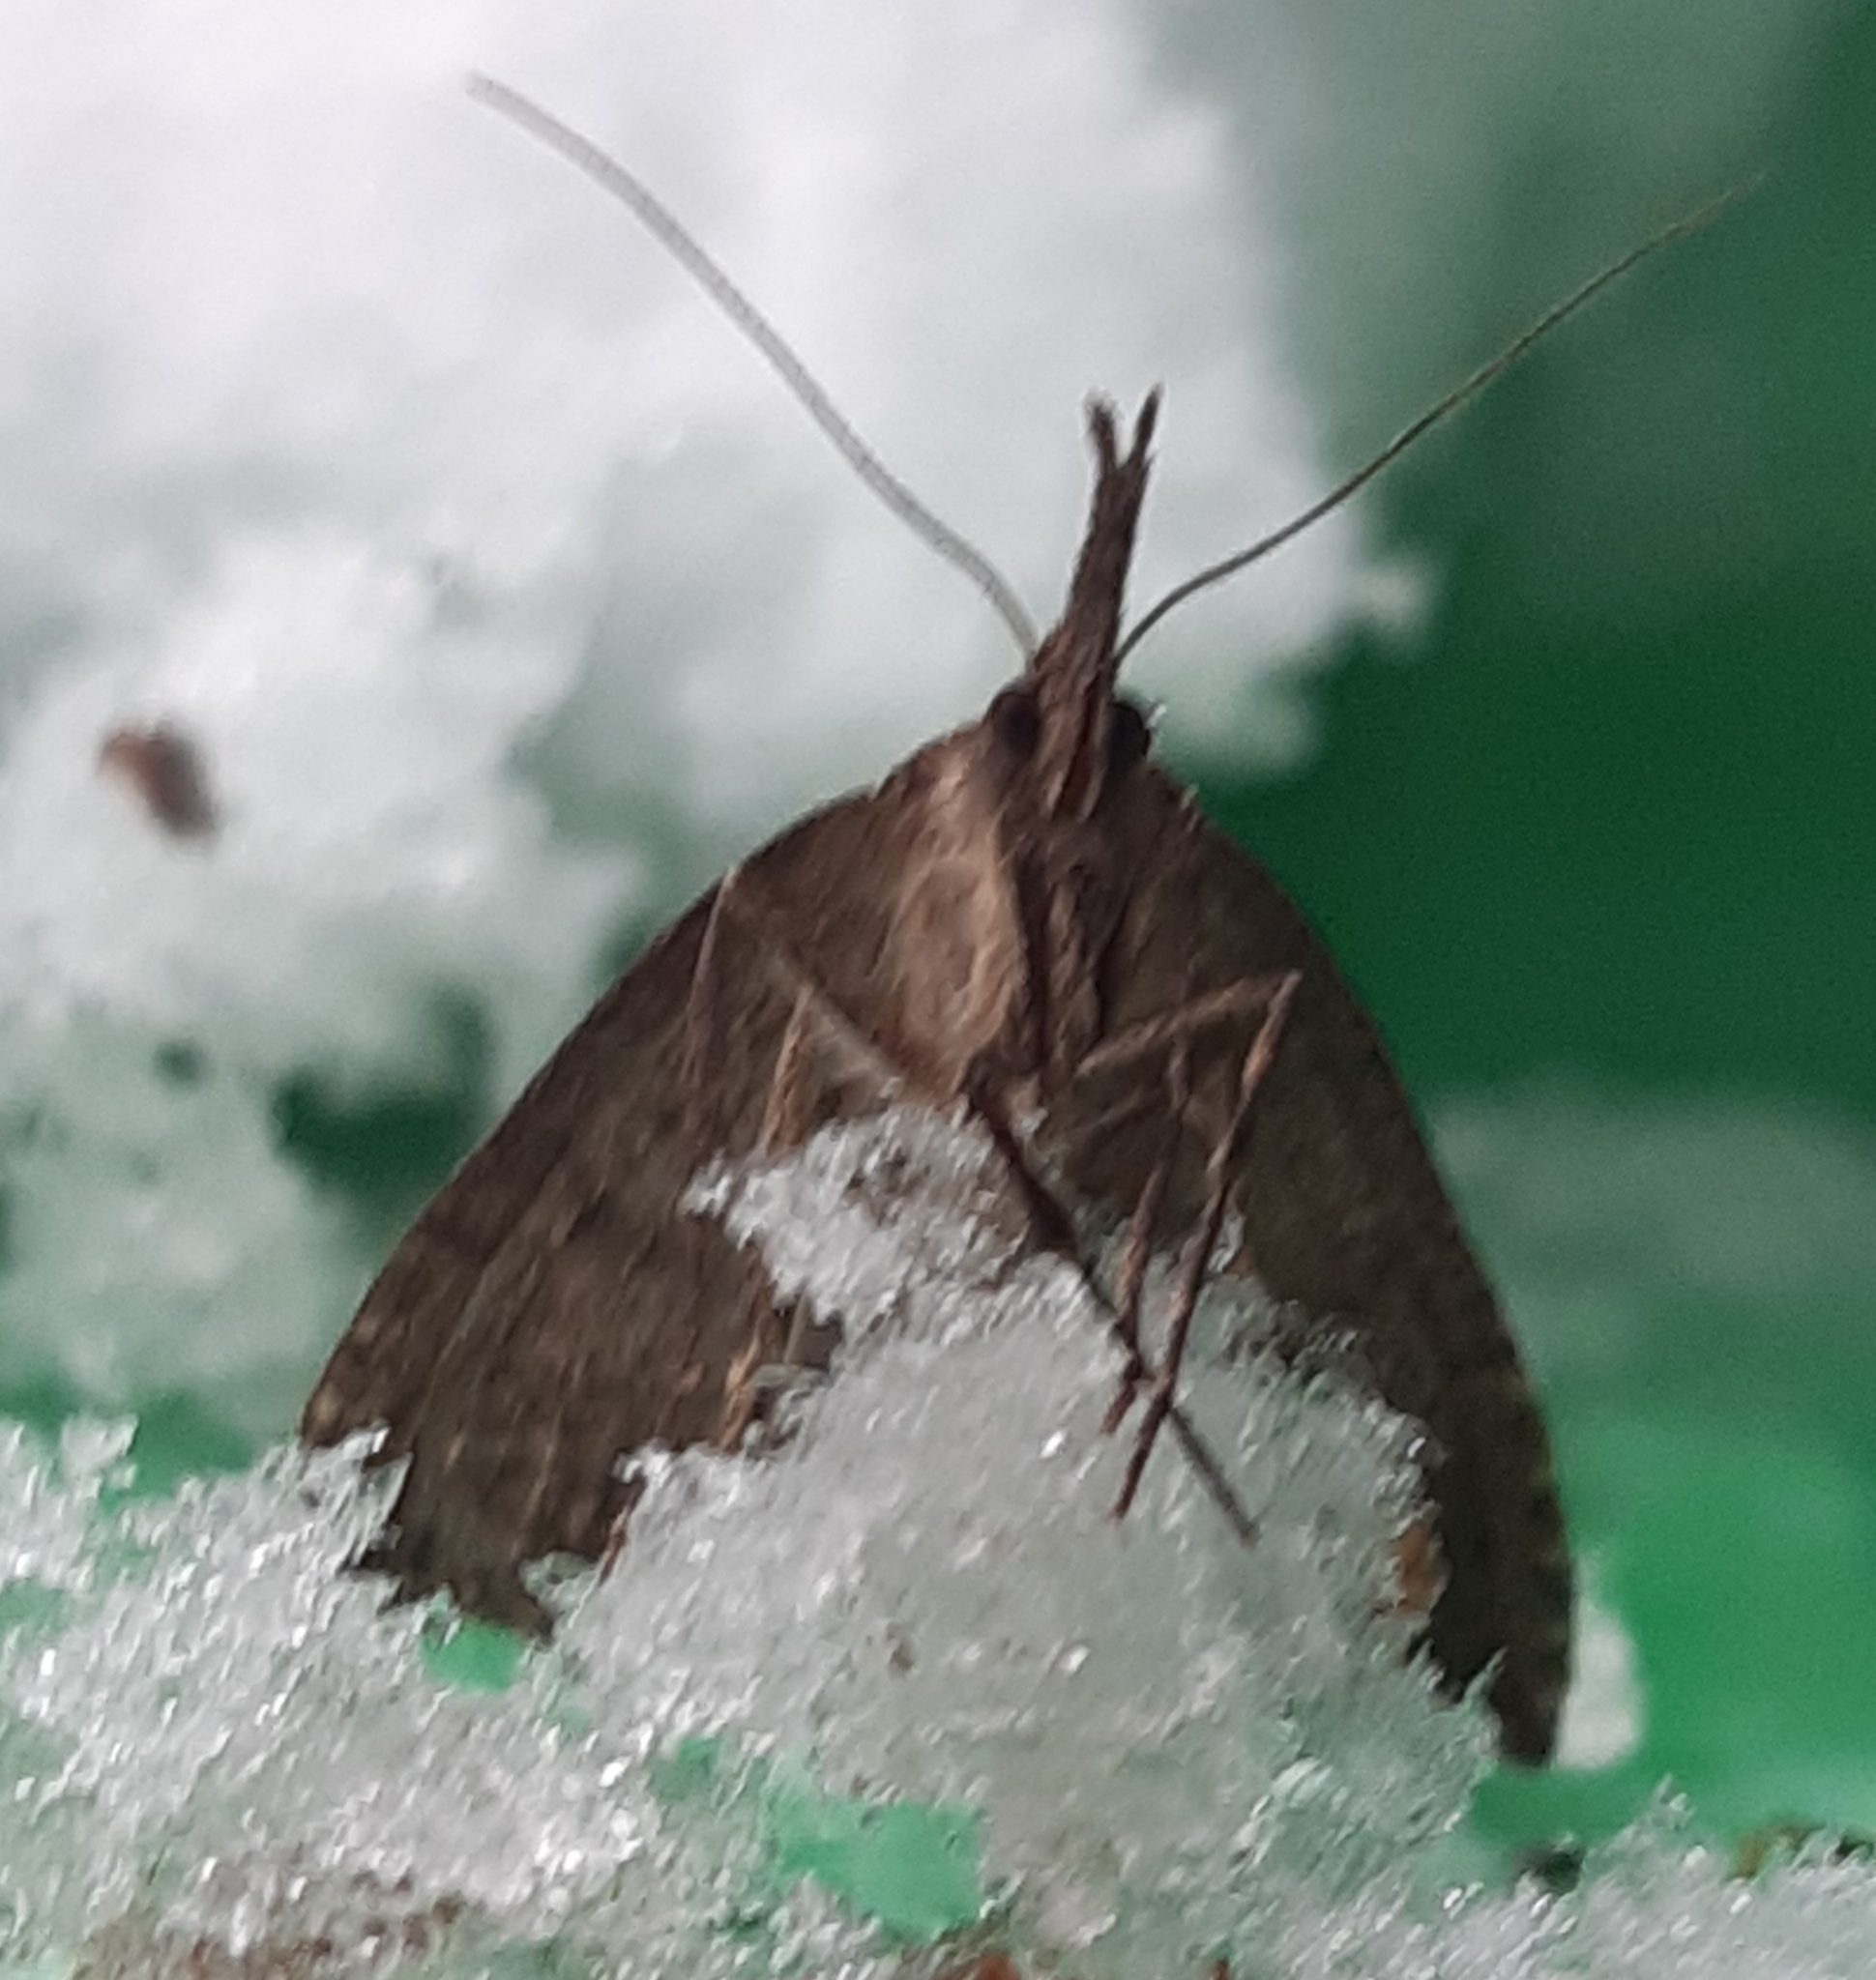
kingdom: Animalia
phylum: Arthropoda
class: Insecta
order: Lepidoptera
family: Erebidae
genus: Hypena
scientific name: Hypena rostralis
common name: Buttoned snout
